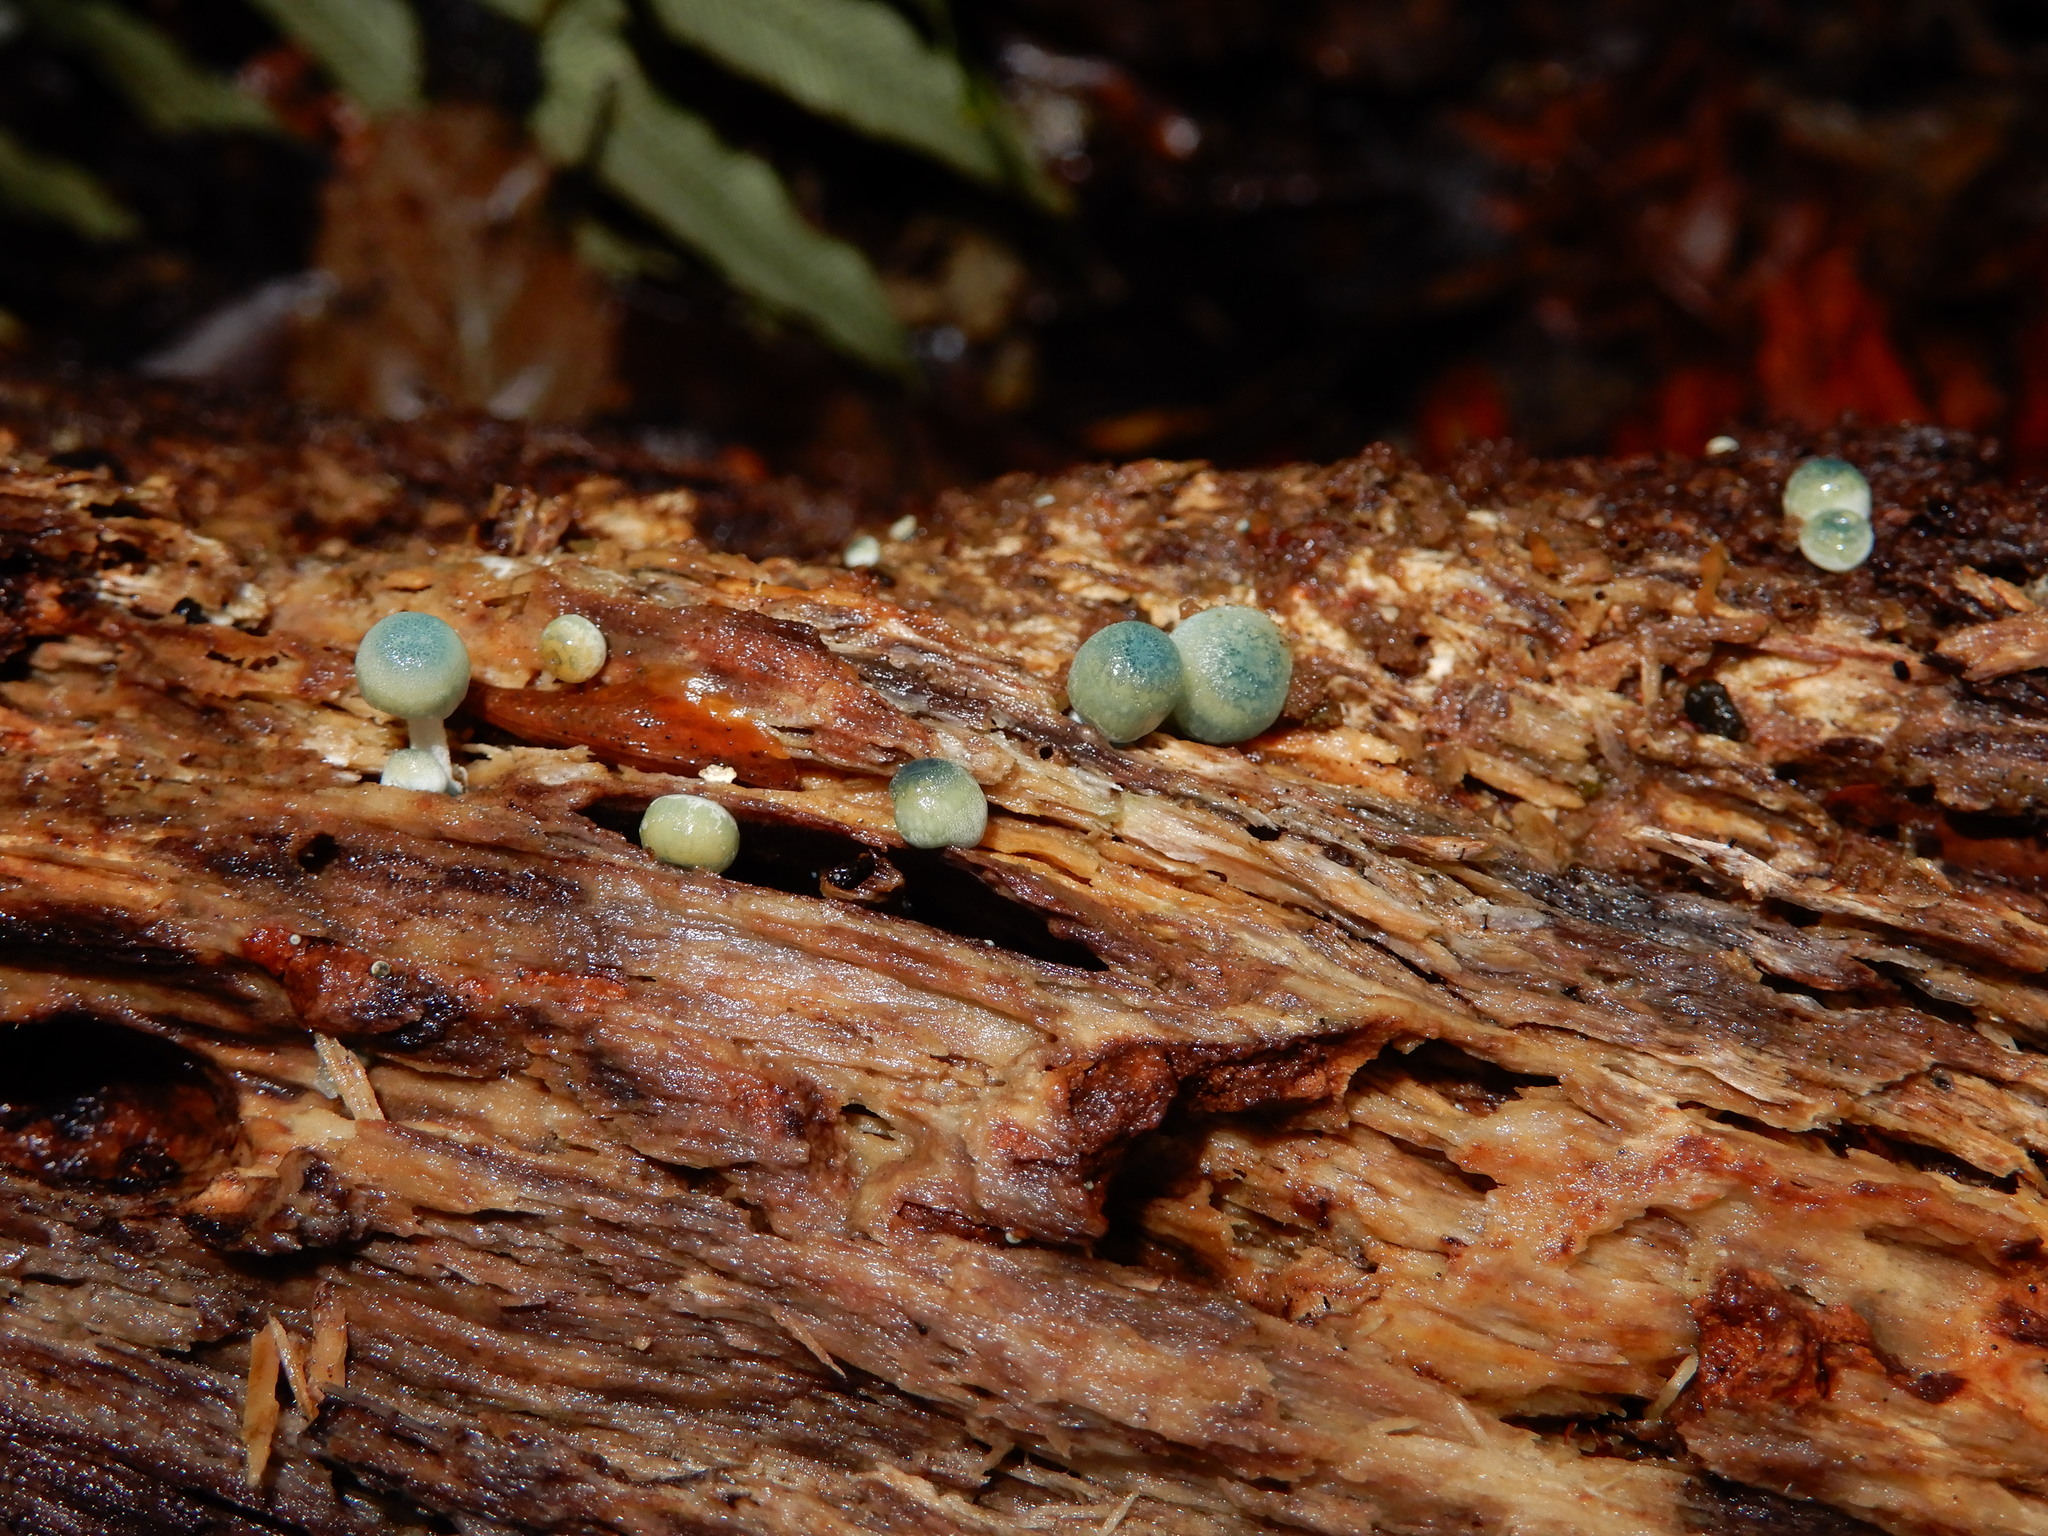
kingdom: Fungi
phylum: Basidiomycota
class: Agaricomycetes
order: Agaricales
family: Mycenaceae
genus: Mycena
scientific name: Mycena interrupta
